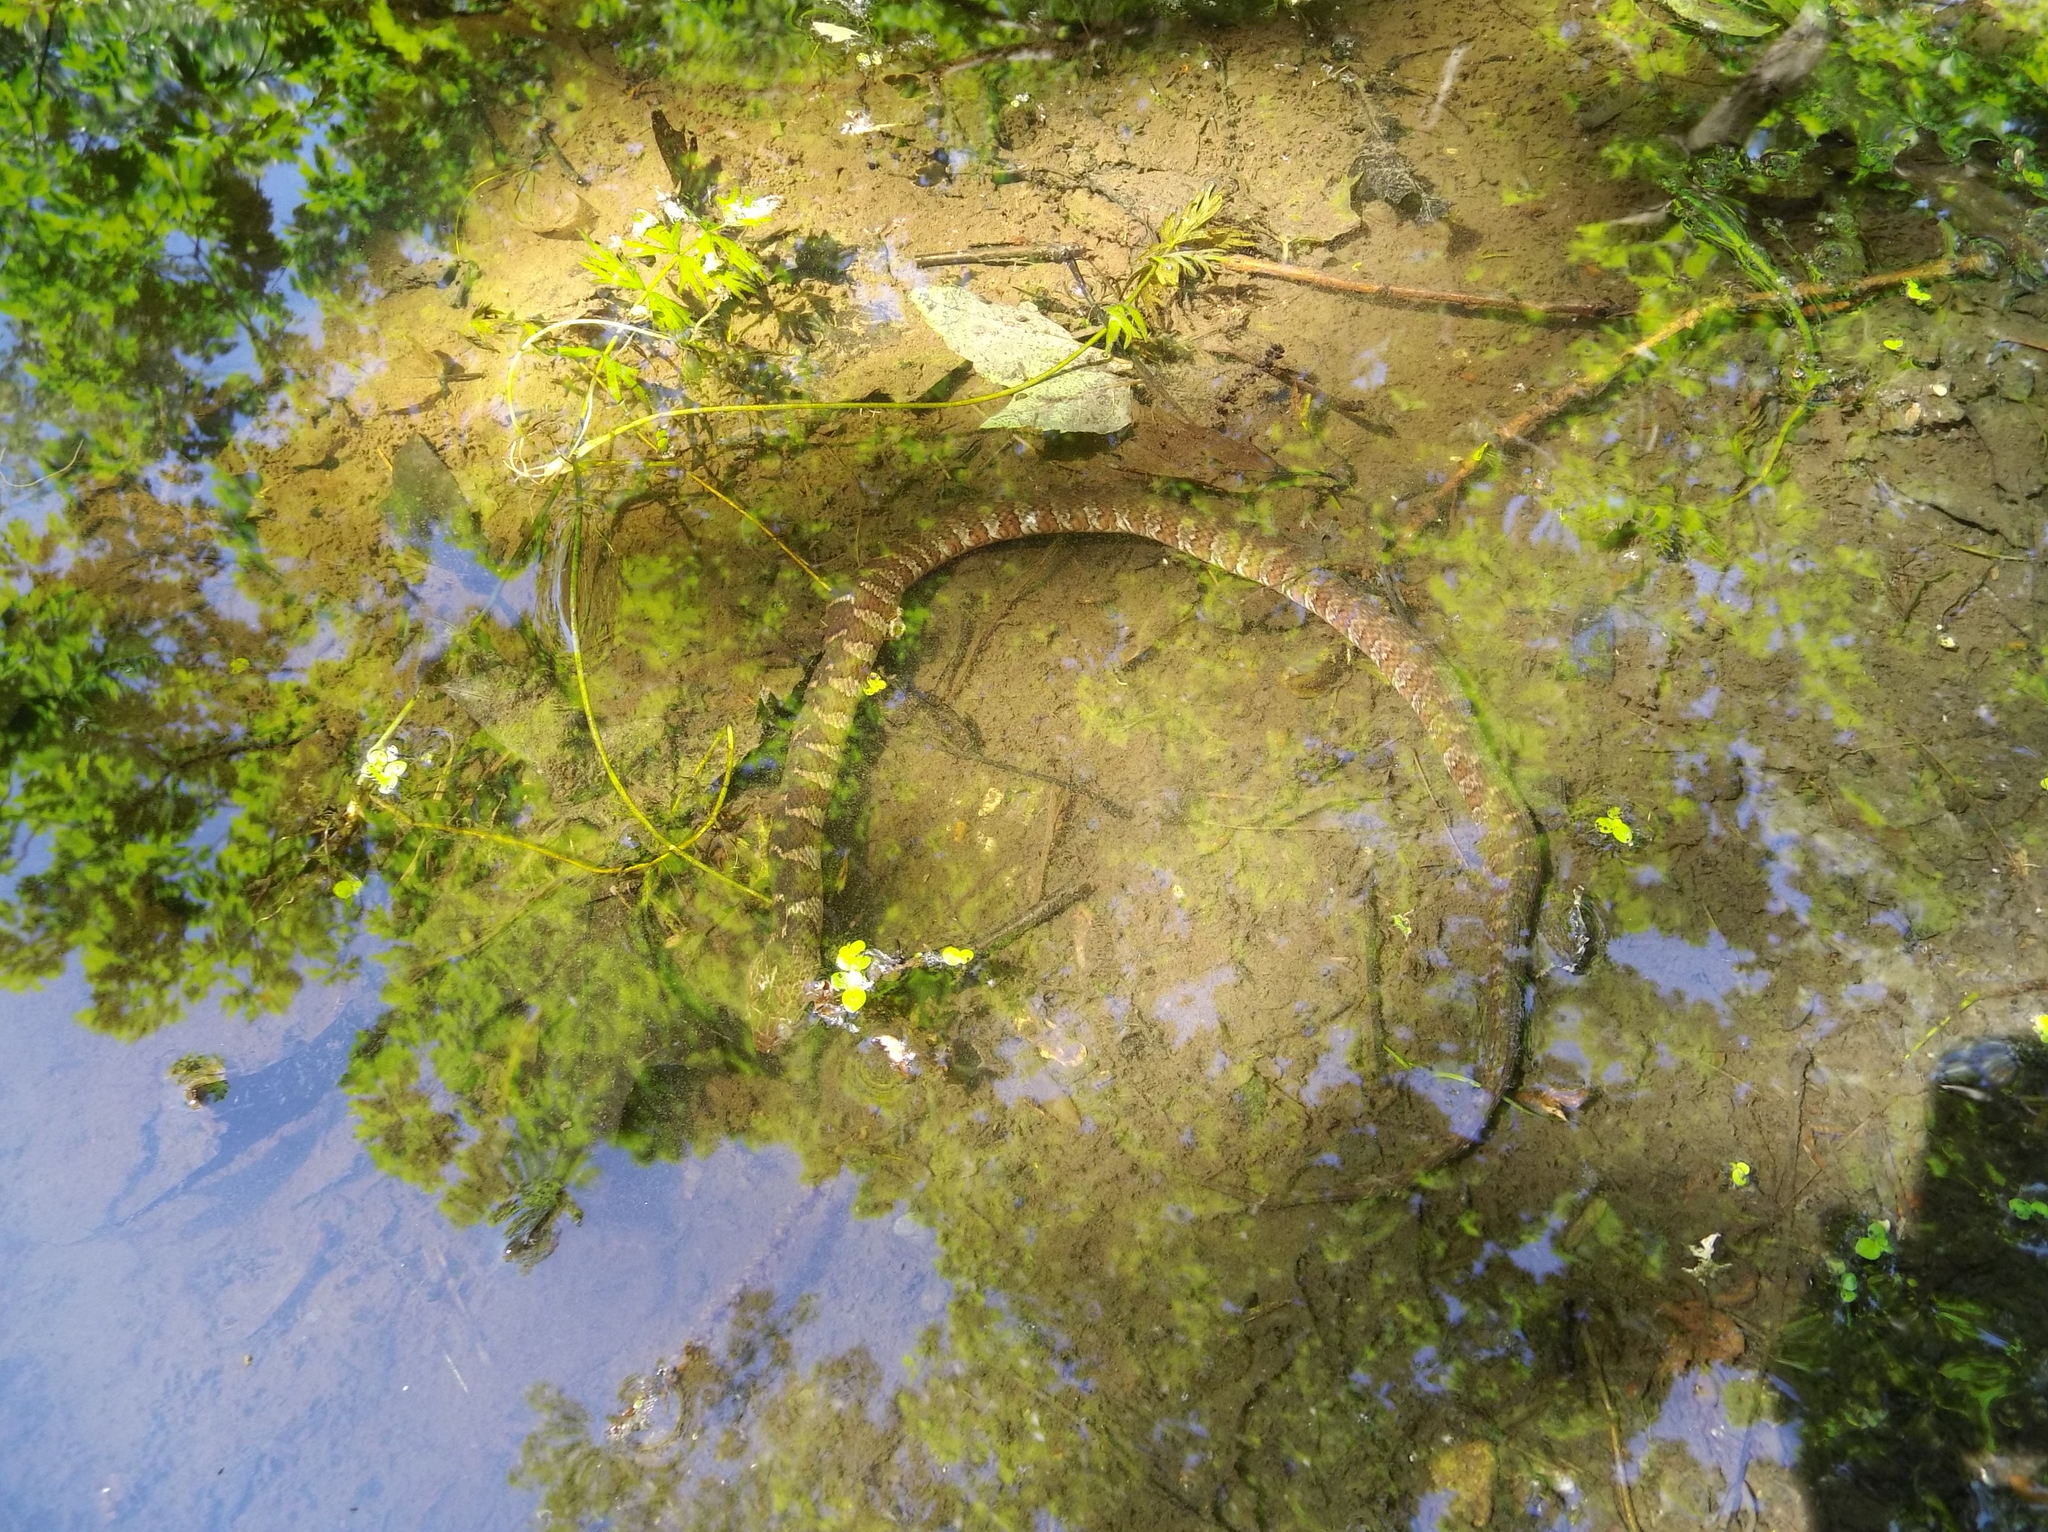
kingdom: Animalia
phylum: Chordata
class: Squamata
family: Colubridae
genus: Nerodia
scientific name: Nerodia sipedon
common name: Northern water snake
